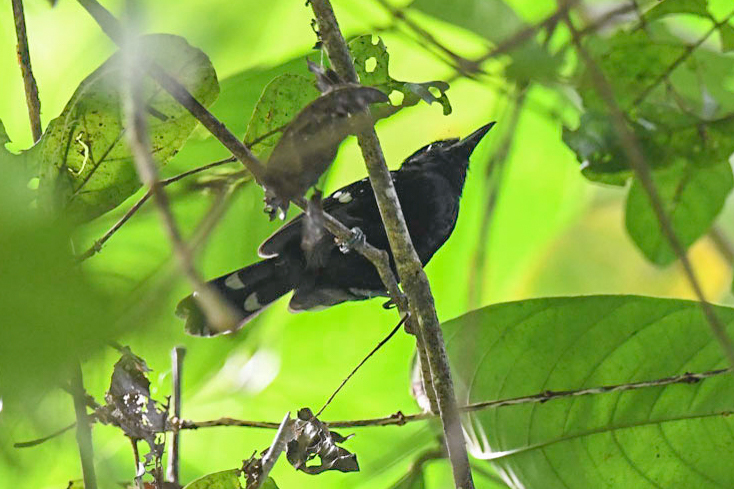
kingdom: Animalia
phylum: Chordata
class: Aves
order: Passeriformes
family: Thamnophilidae
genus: Microrhopias
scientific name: Microrhopias quixensis
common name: Dot-winged antwren
